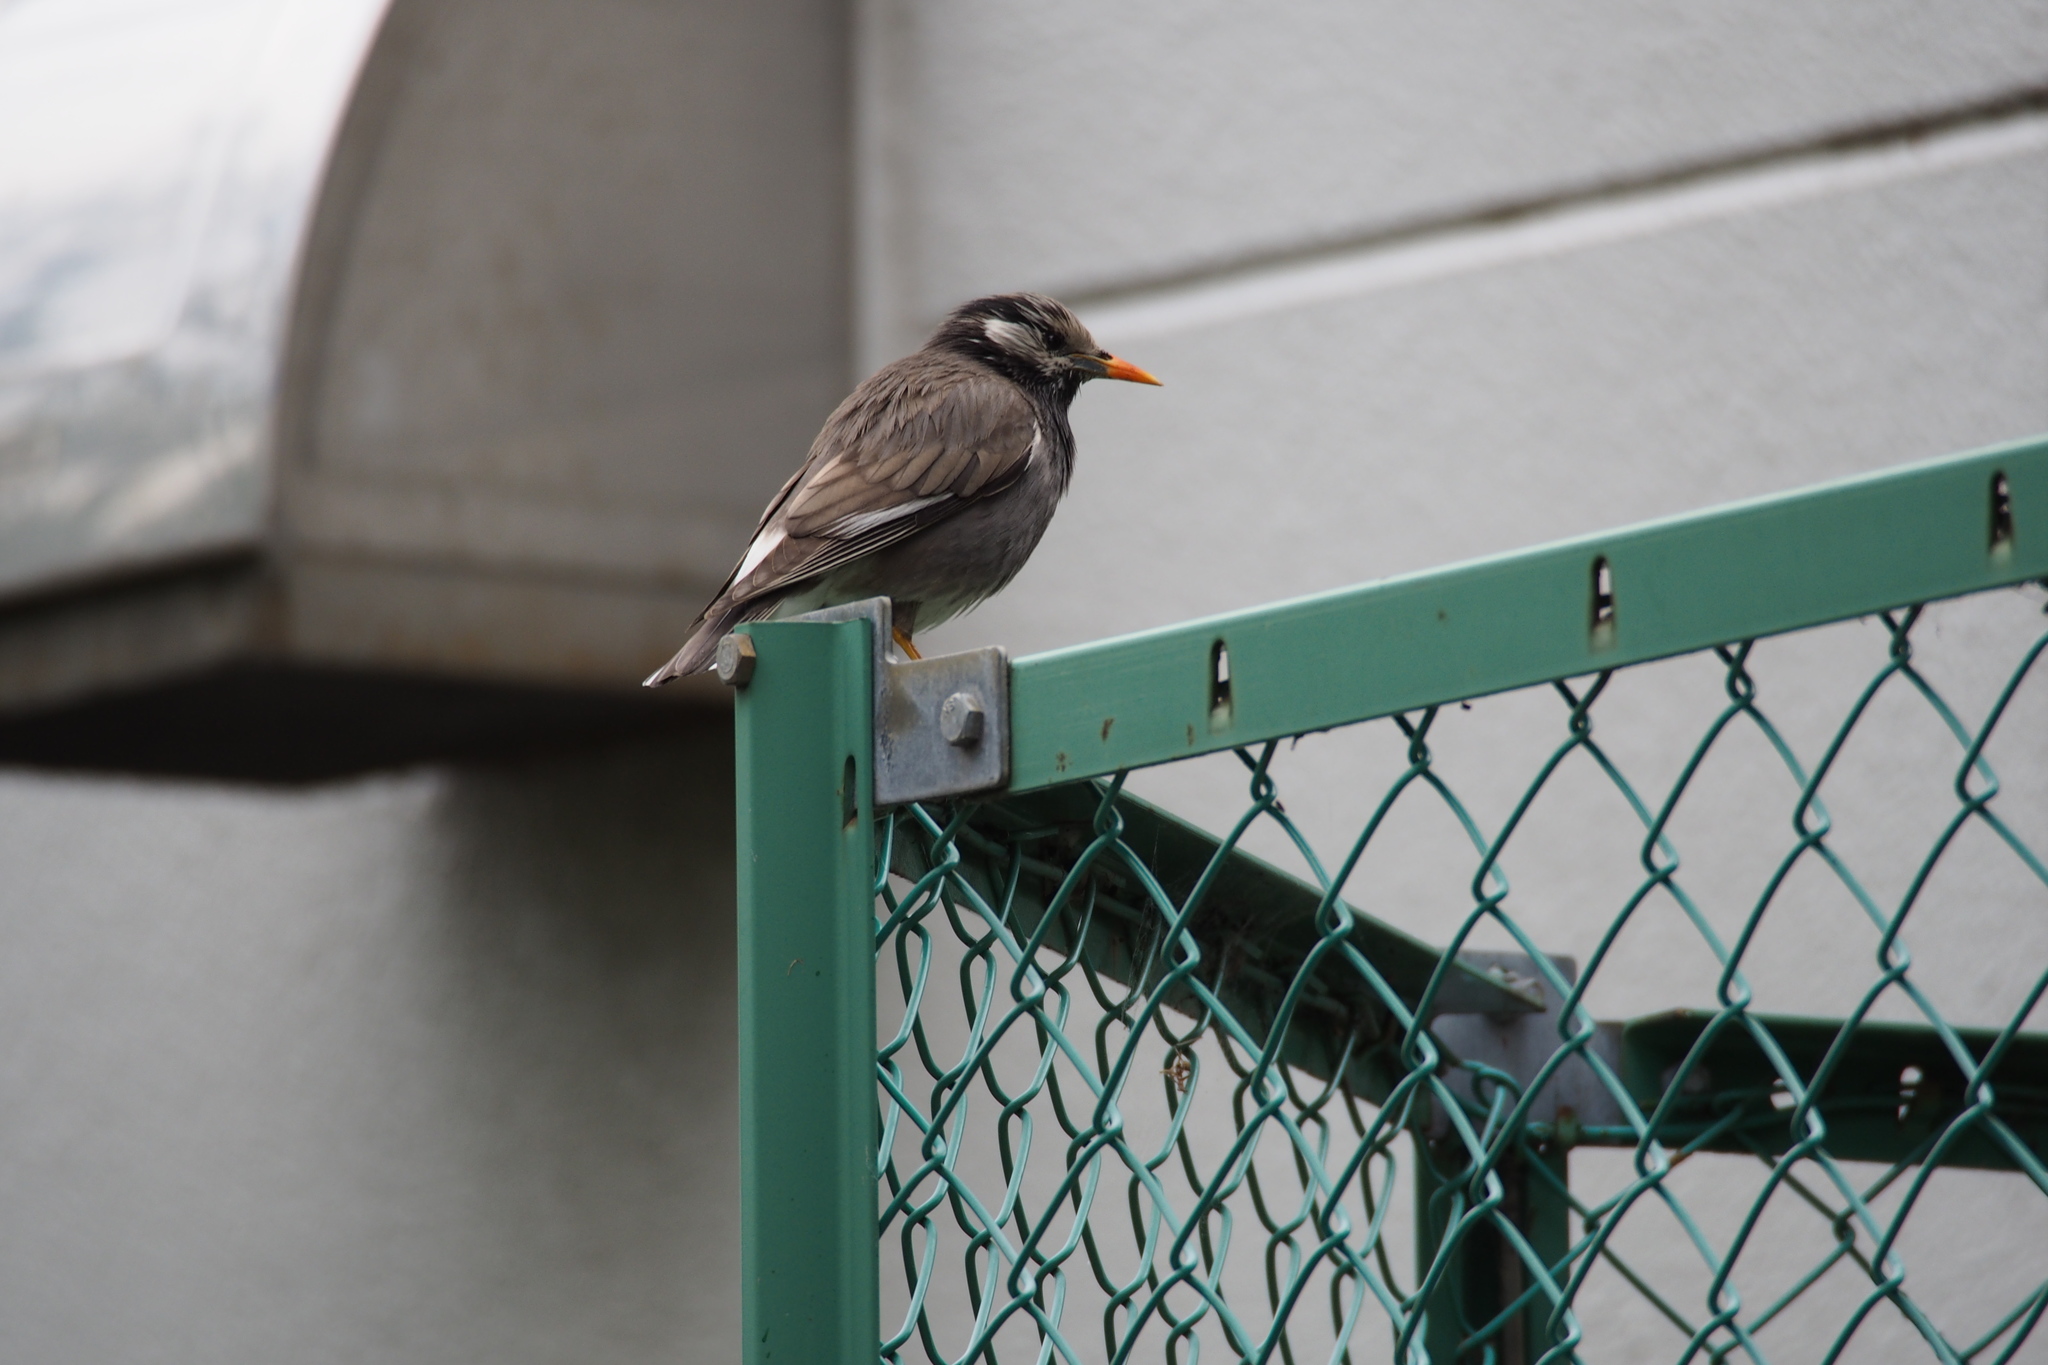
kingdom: Animalia
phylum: Chordata
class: Aves
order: Passeriformes
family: Sturnidae
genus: Spodiopsar
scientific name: Spodiopsar cineraceus
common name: White-cheeked starling
